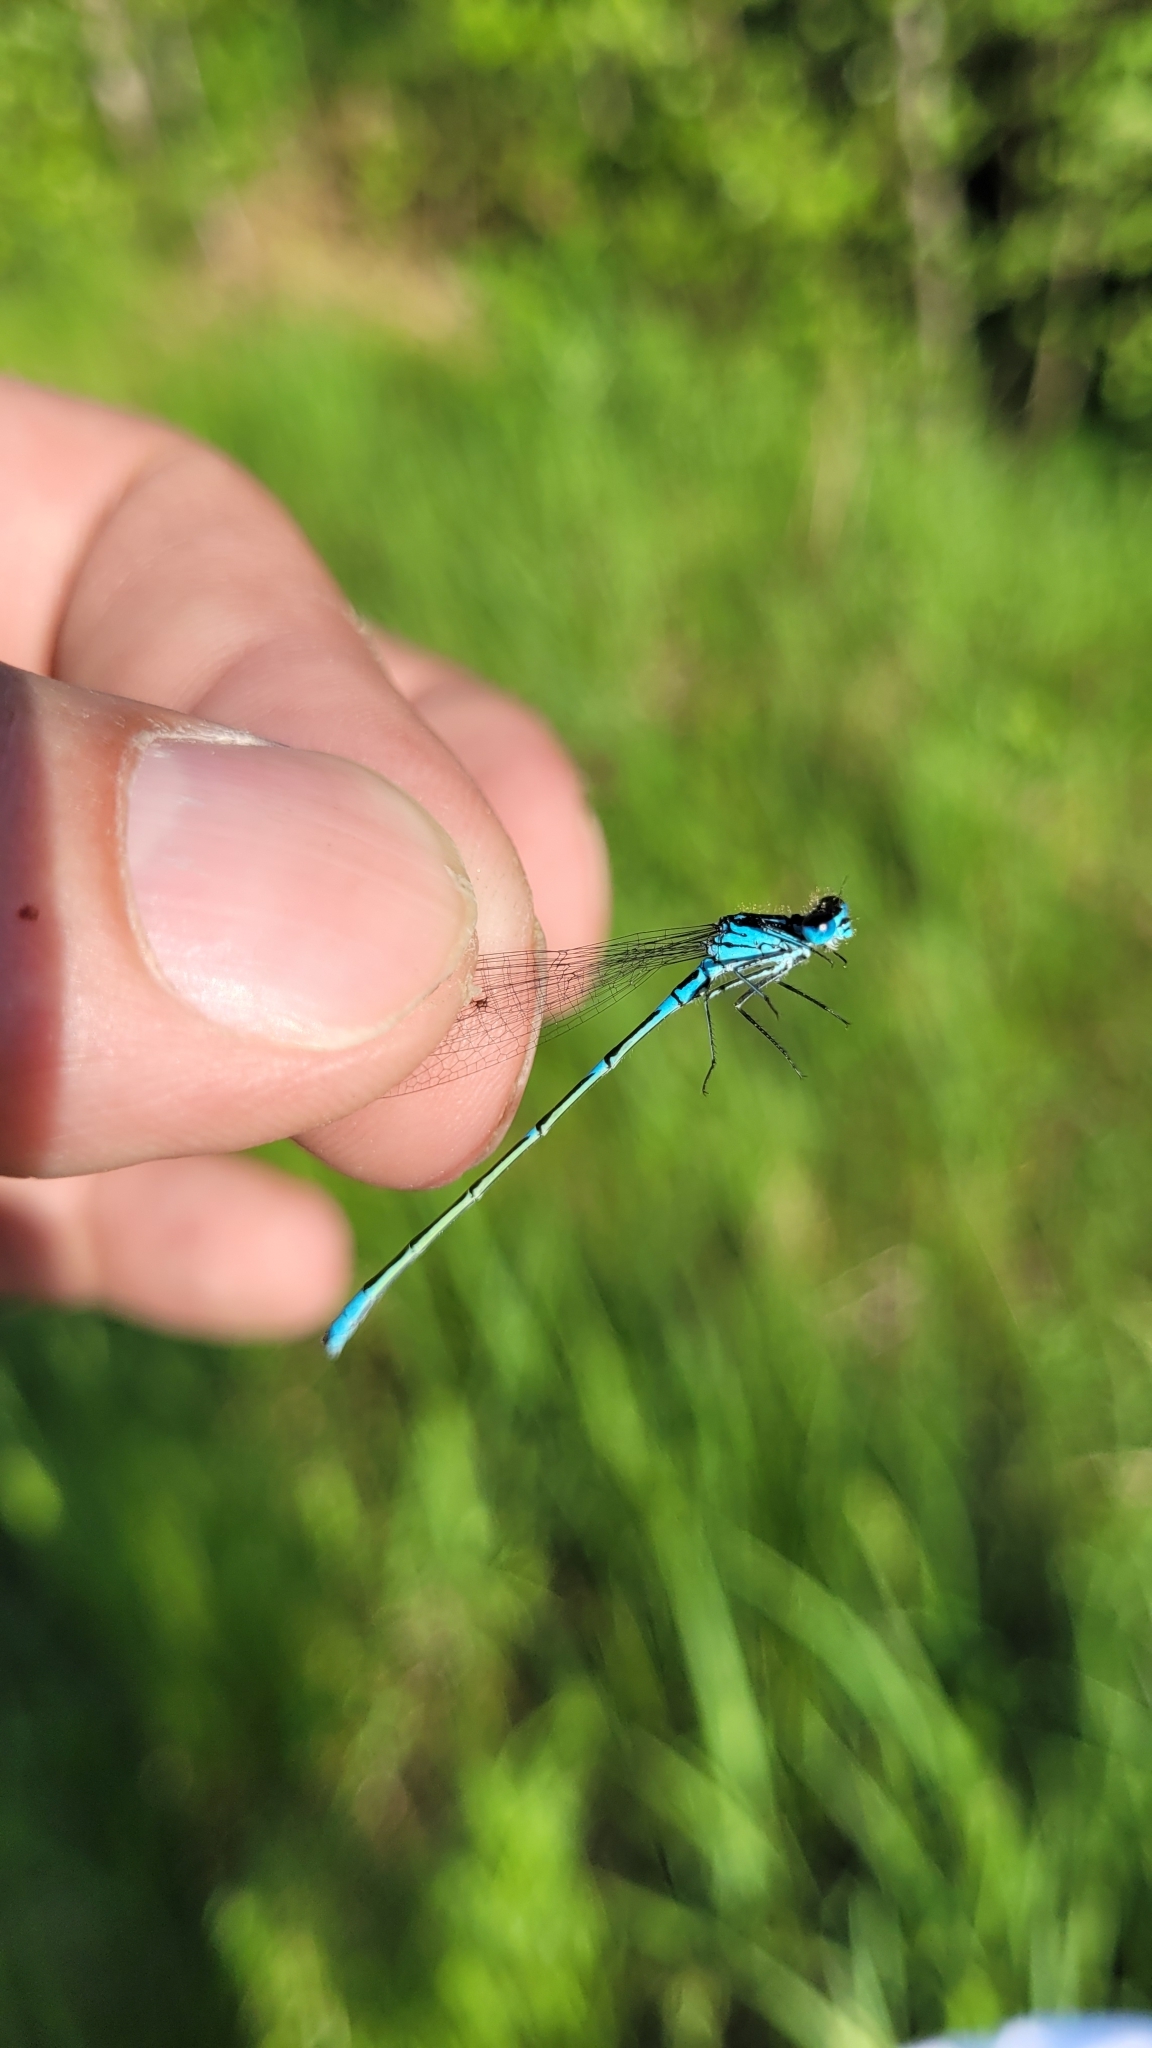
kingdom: Animalia
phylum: Arthropoda
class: Insecta
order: Odonata
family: Coenagrionidae
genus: Coenagrion
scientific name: Coenagrion pulchellum
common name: Variable bluet
